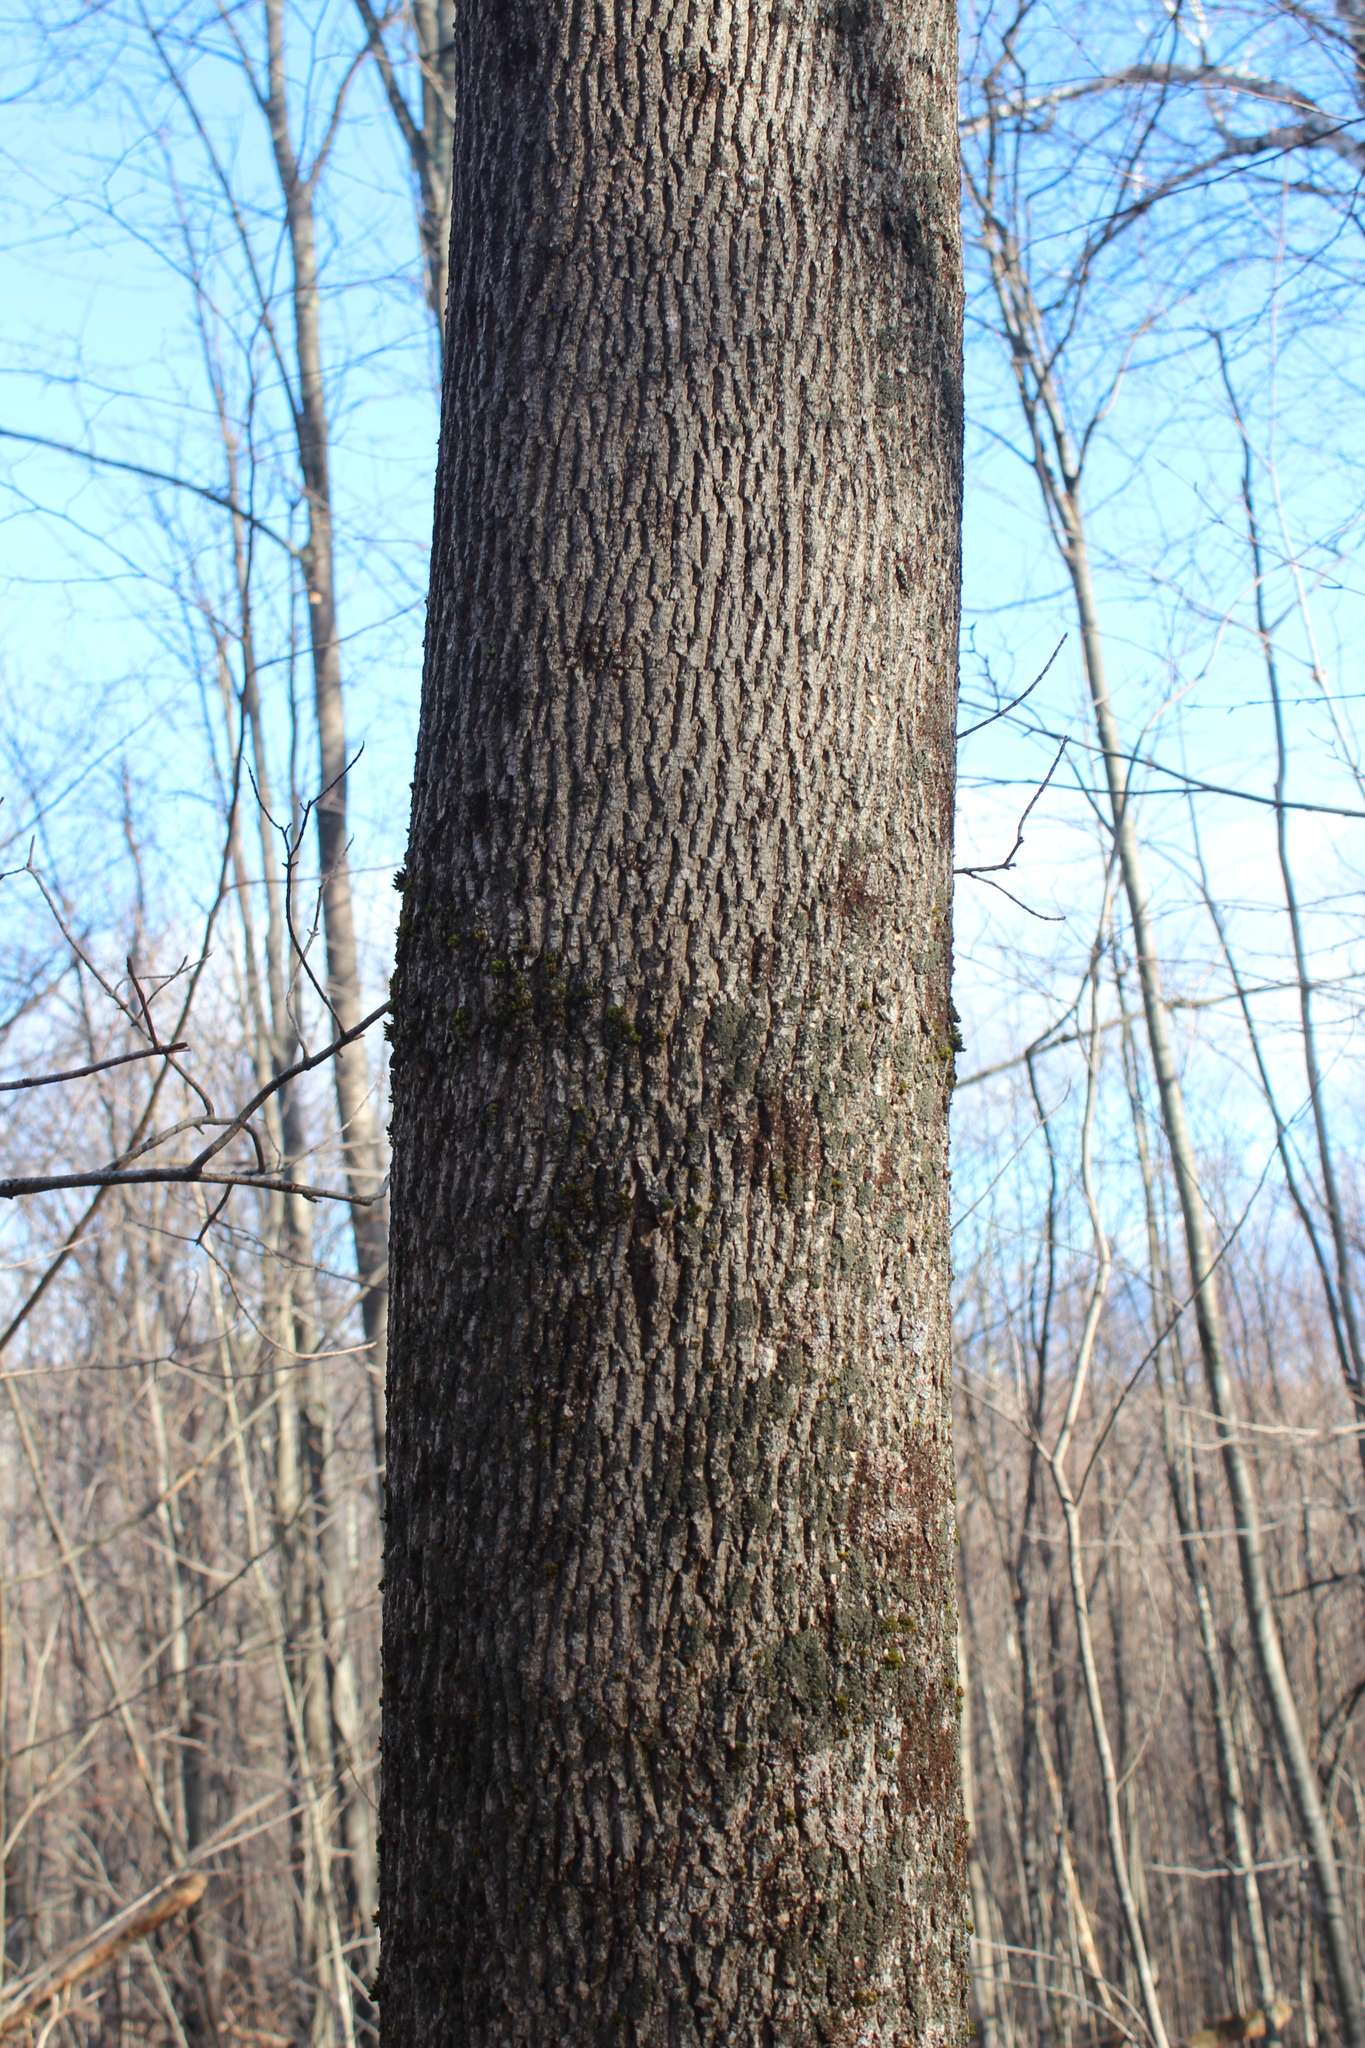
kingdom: Plantae
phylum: Tracheophyta
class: Magnoliopsida
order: Lamiales
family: Oleaceae
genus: Fraxinus
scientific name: Fraxinus americana
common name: White ash
